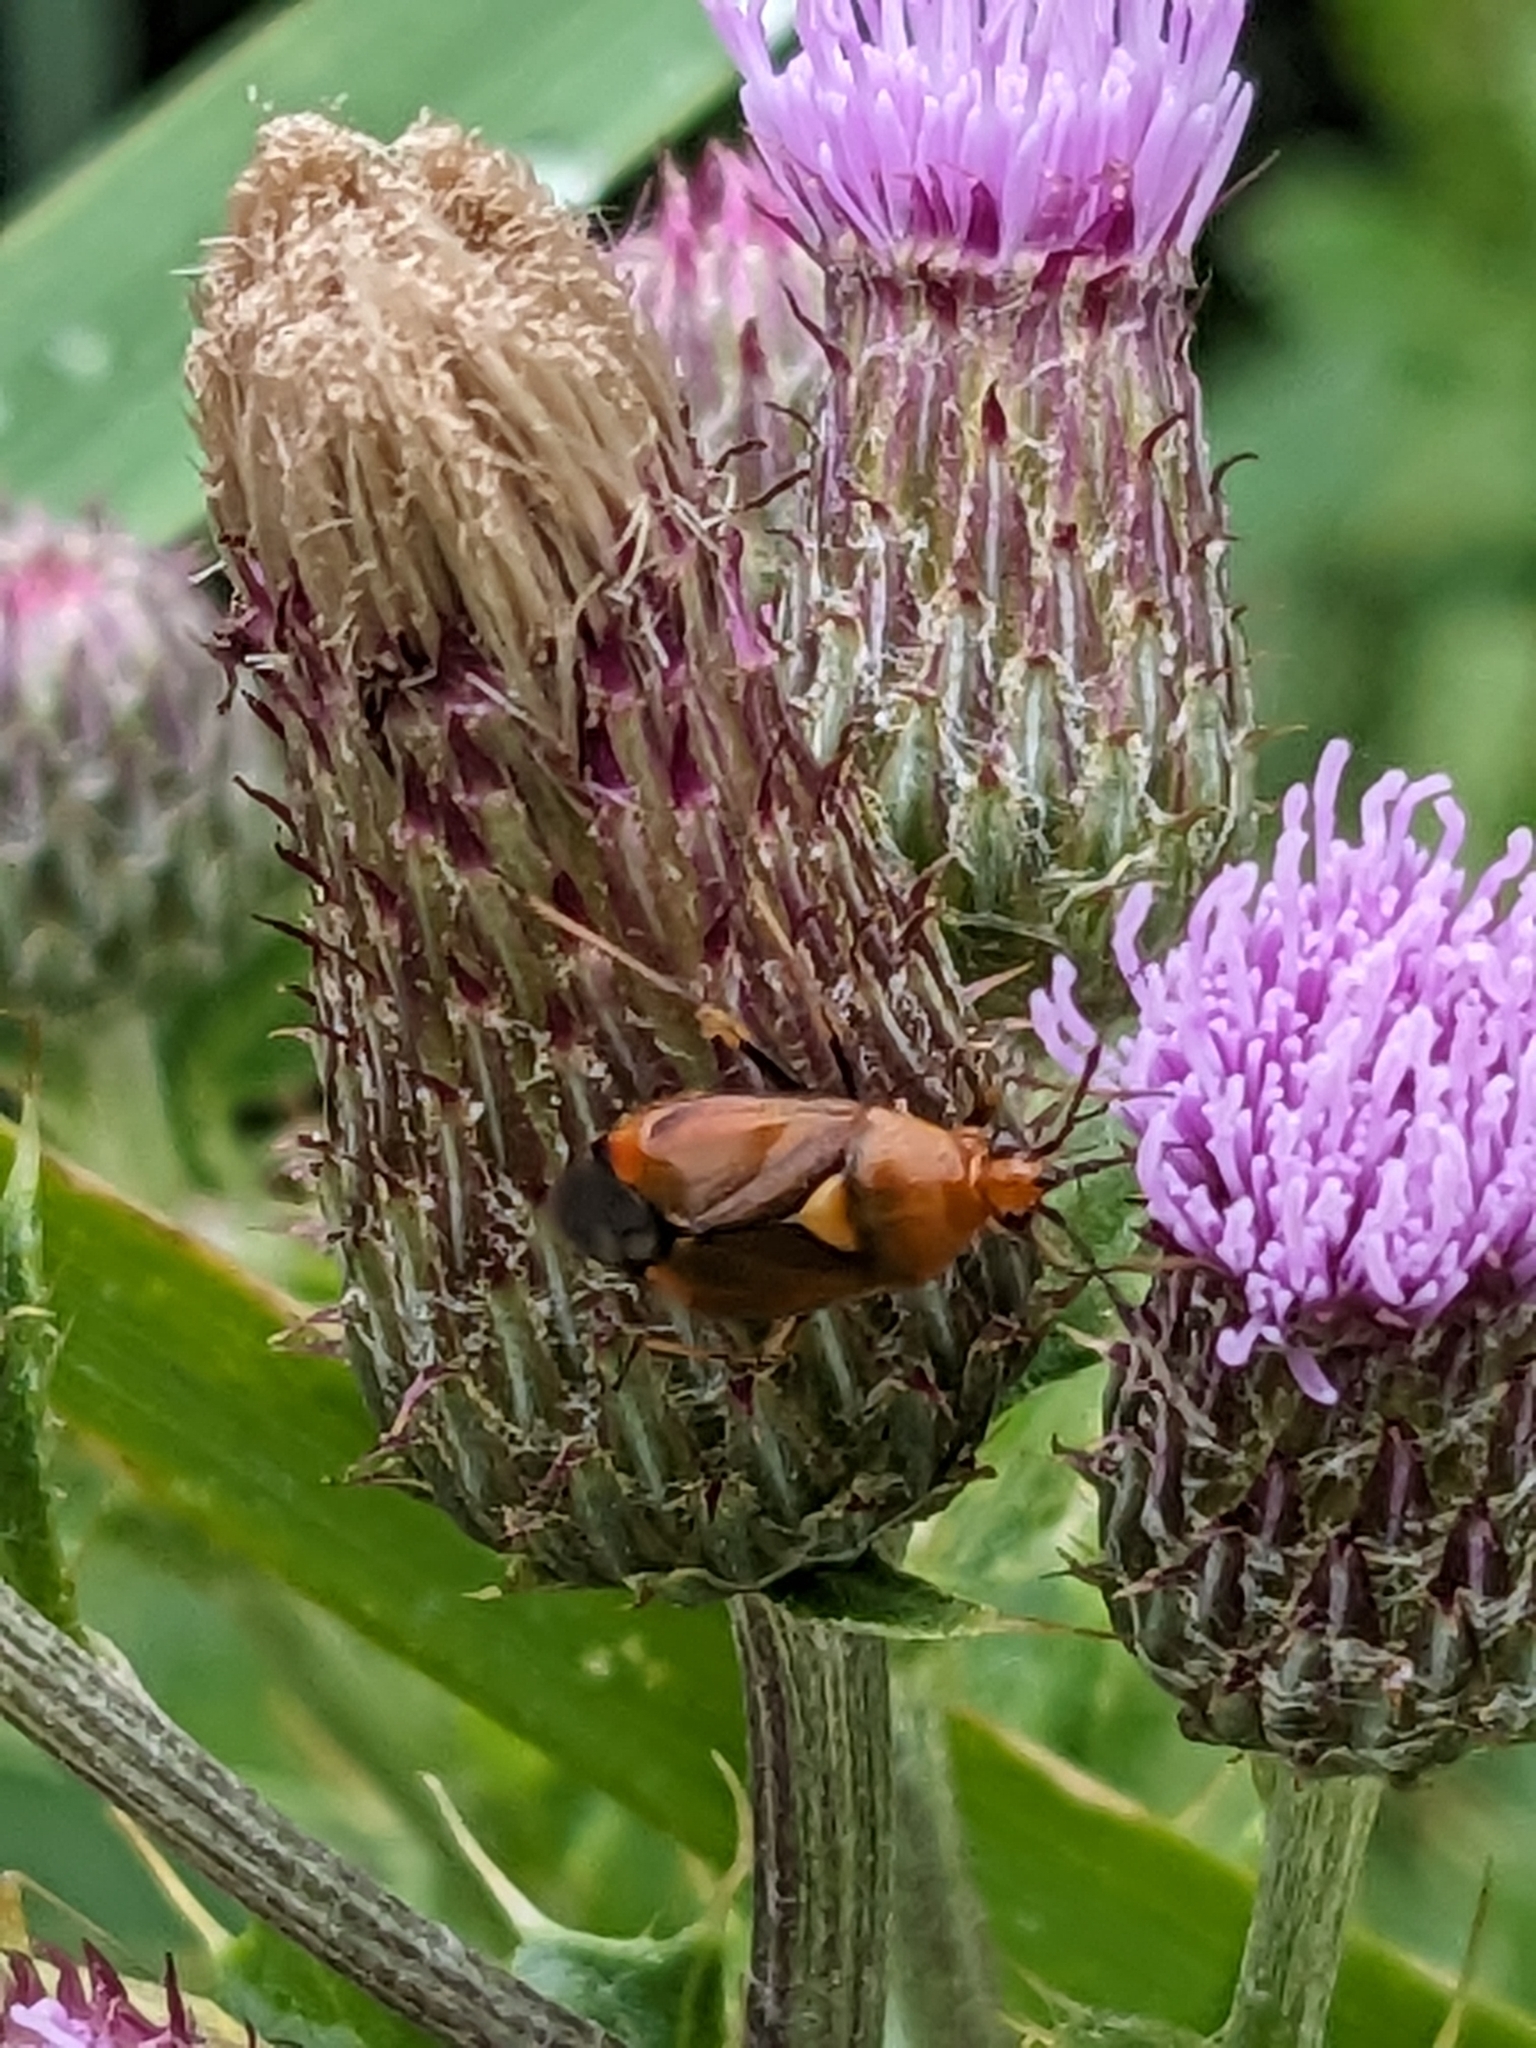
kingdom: Animalia
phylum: Arthropoda
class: Insecta
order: Hemiptera
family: Miridae
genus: Deraeocoris
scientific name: Deraeocoris ruber
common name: Plant bug
